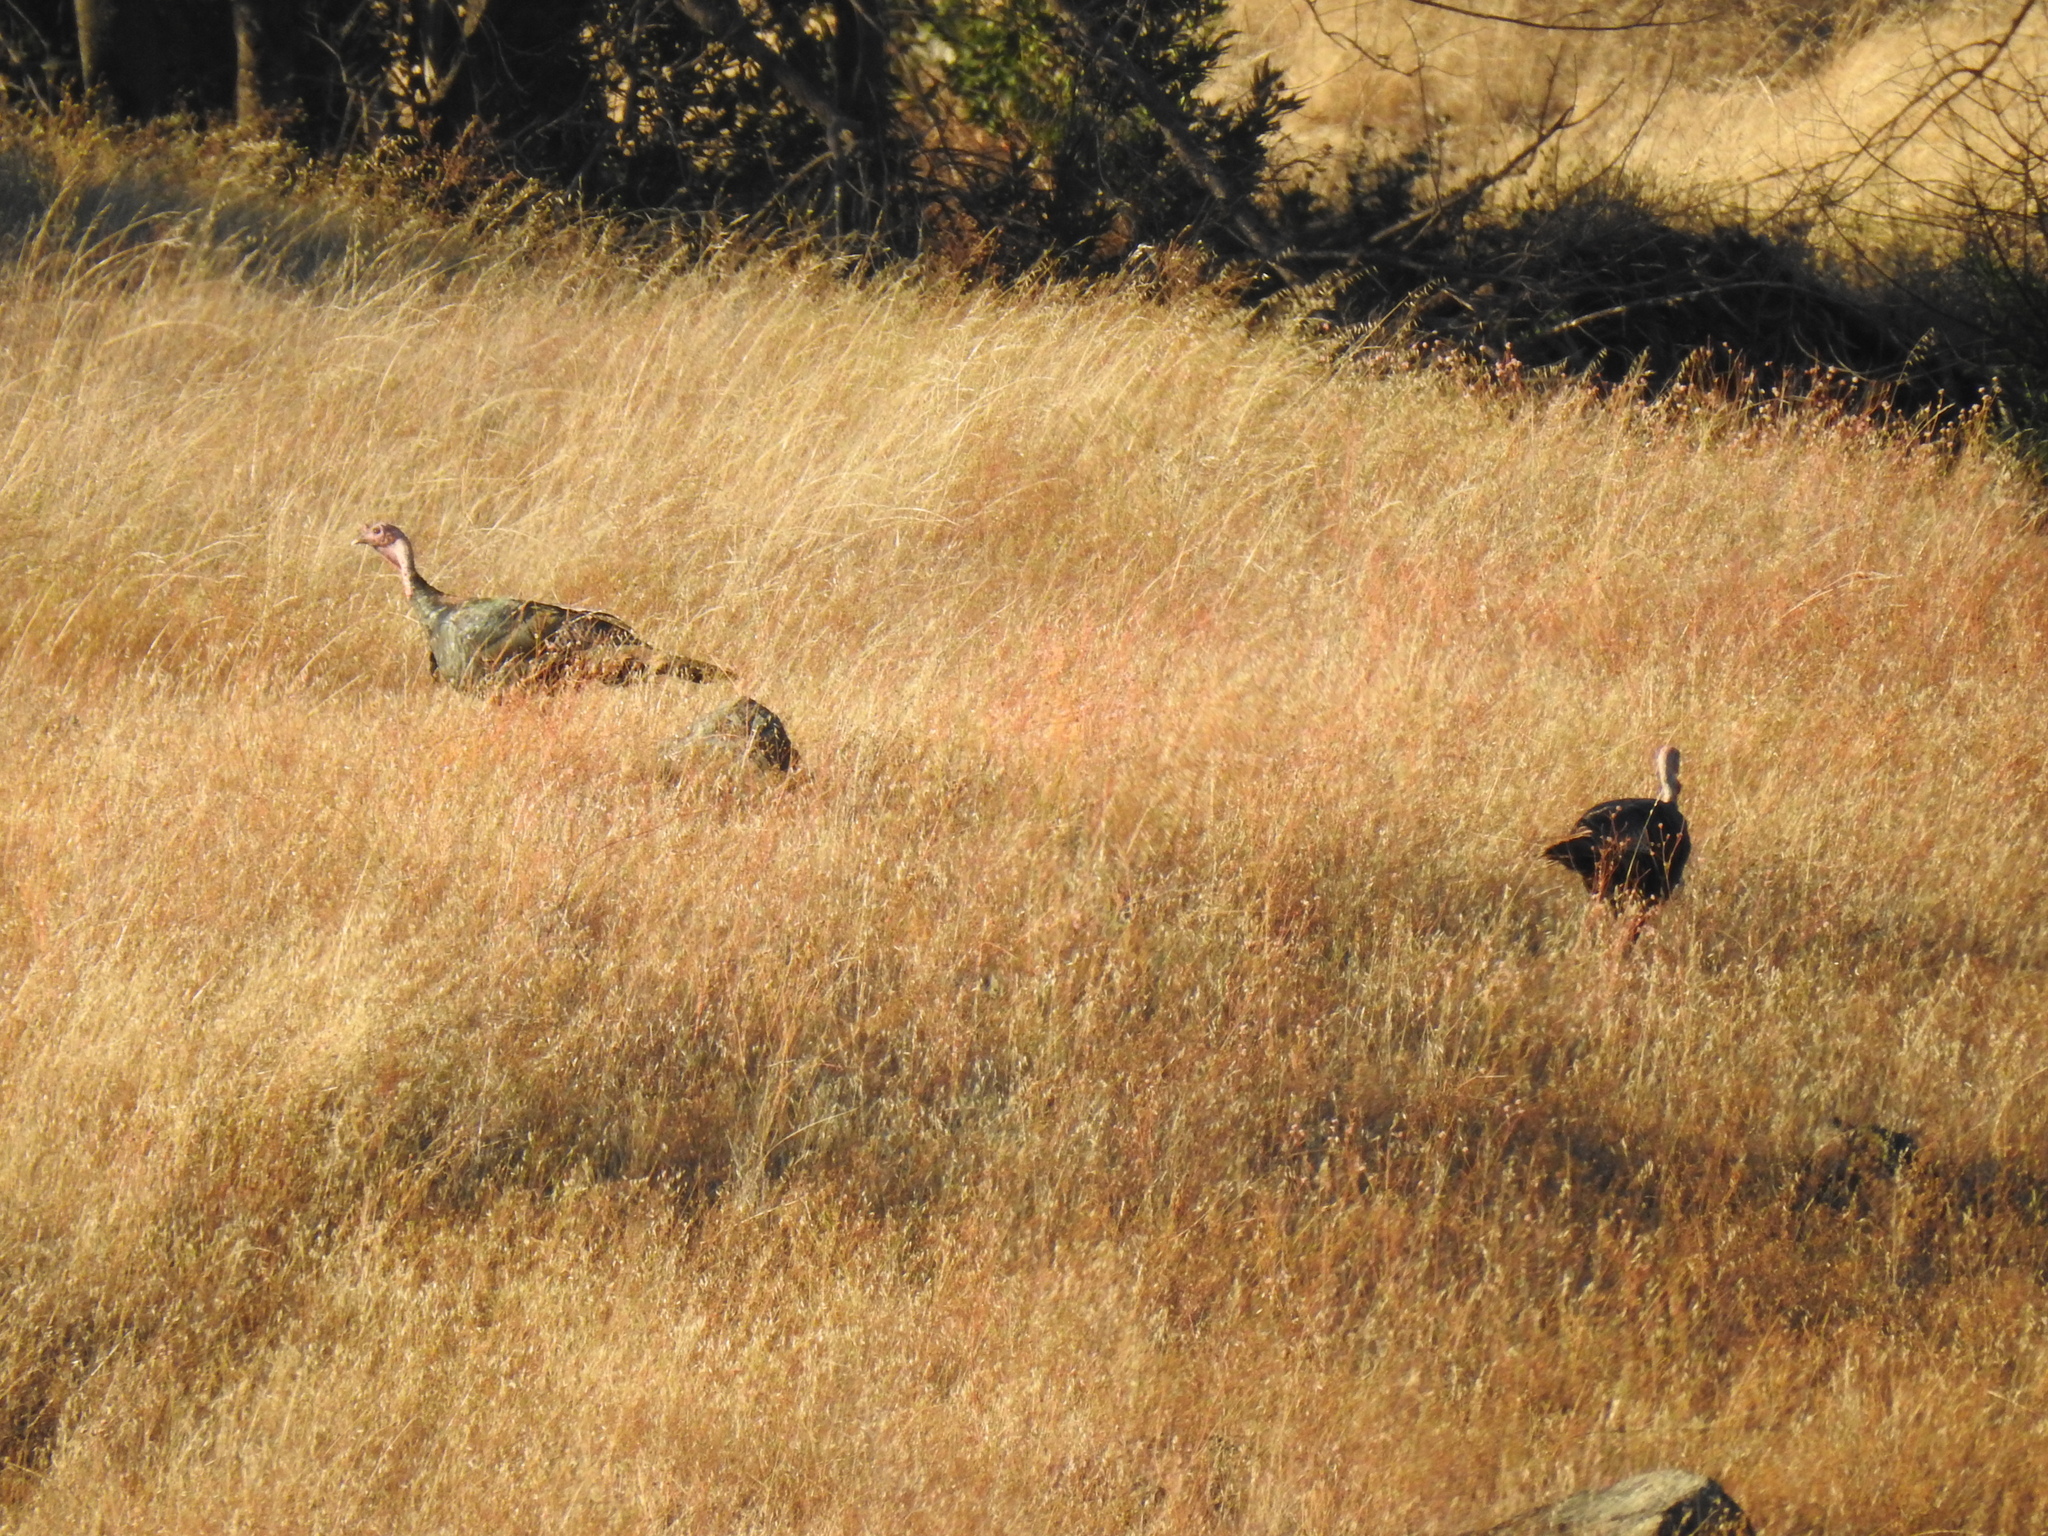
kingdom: Animalia
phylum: Chordata
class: Aves
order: Galliformes
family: Phasianidae
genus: Meleagris
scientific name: Meleagris gallopavo
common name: Wild turkey
